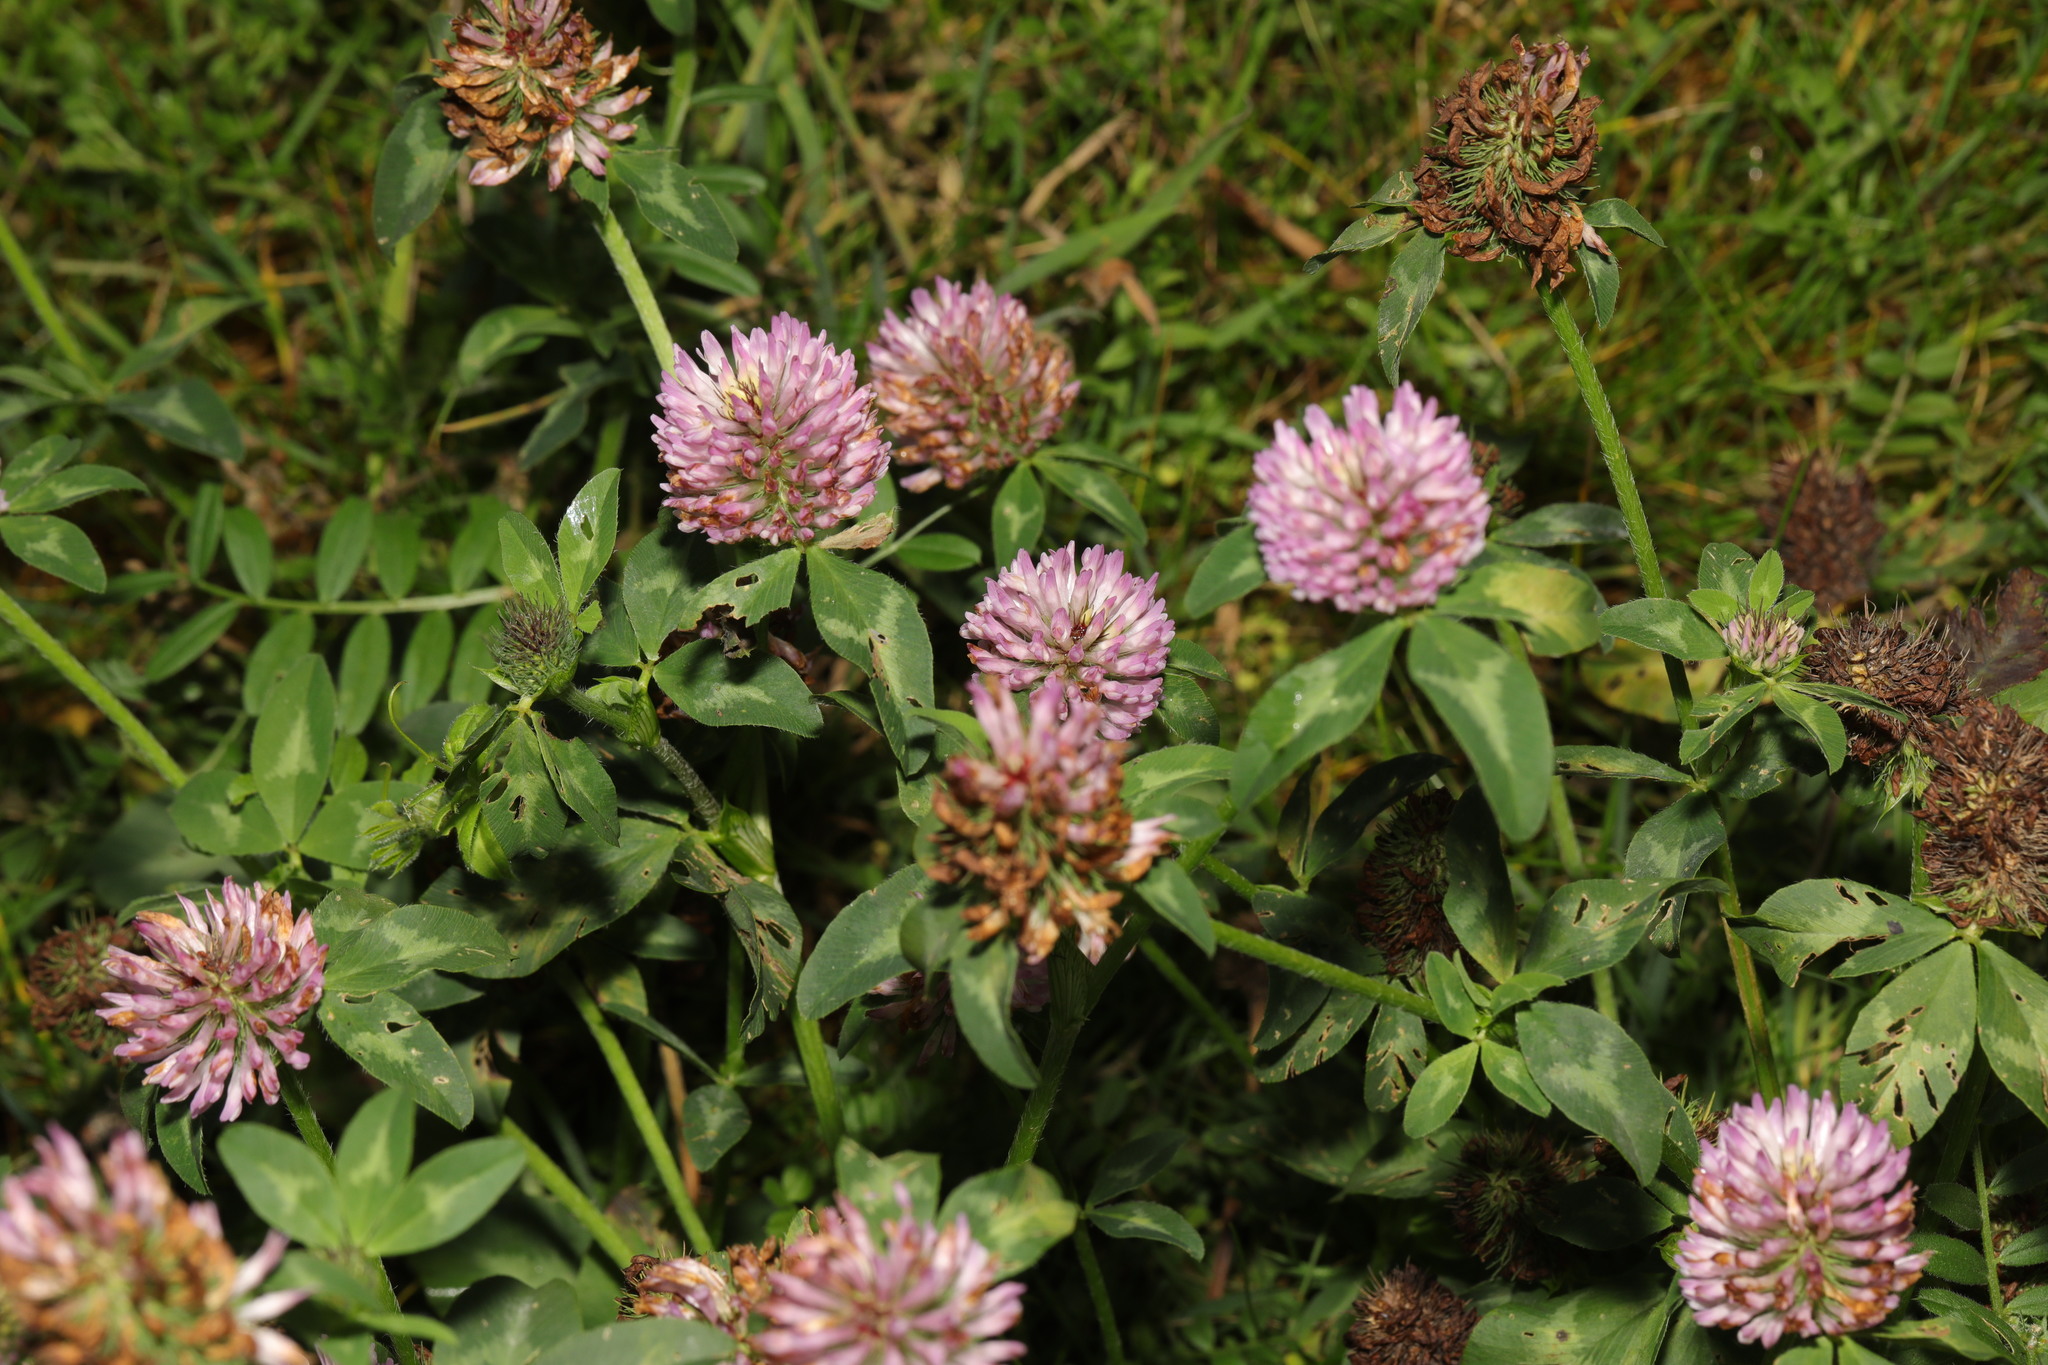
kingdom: Plantae
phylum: Tracheophyta
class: Magnoliopsida
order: Fabales
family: Fabaceae
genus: Trifolium
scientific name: Trifolium pratense
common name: Red clover
